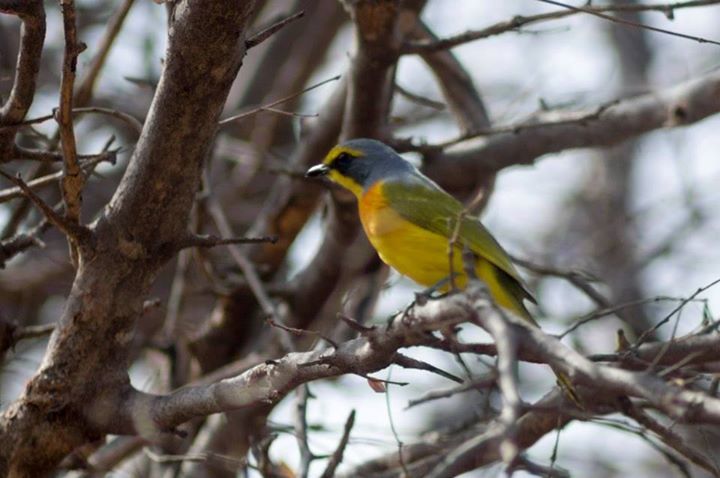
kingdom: Animalia
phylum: Chordata
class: Aves
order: Passeriformes
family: Malaconotidae
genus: Chlorophoneus
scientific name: Chlorophoneus sulfureopectus
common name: Orange-breasted bushshrike
